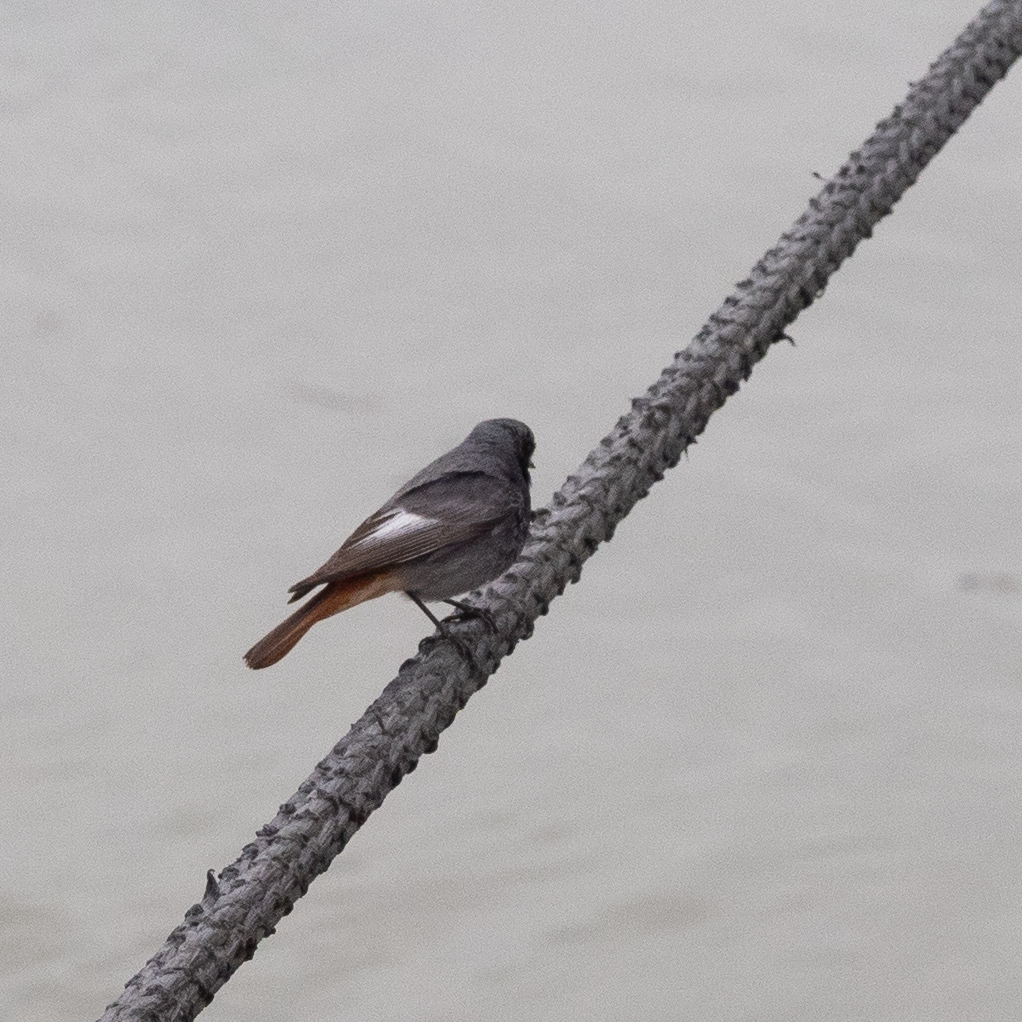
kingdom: Animalia
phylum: Chordata
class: Aves
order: Passeriformes
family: Muscicapidae
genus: Phoenicurus
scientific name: Phoenicurus ochruros
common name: Black redstart
